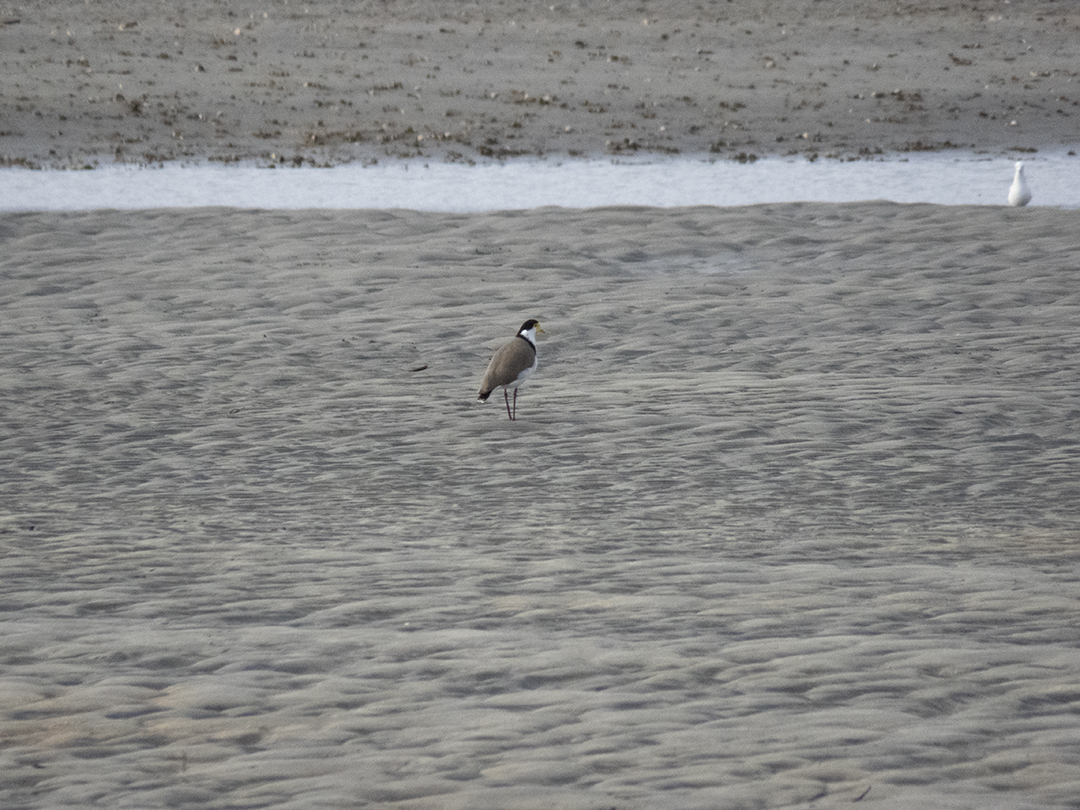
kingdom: Animalia
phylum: Chordata
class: Aves
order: Charadriiformes
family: Charadriidae
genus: Vanellus
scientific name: Vanellus miles
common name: Masked lapwing
